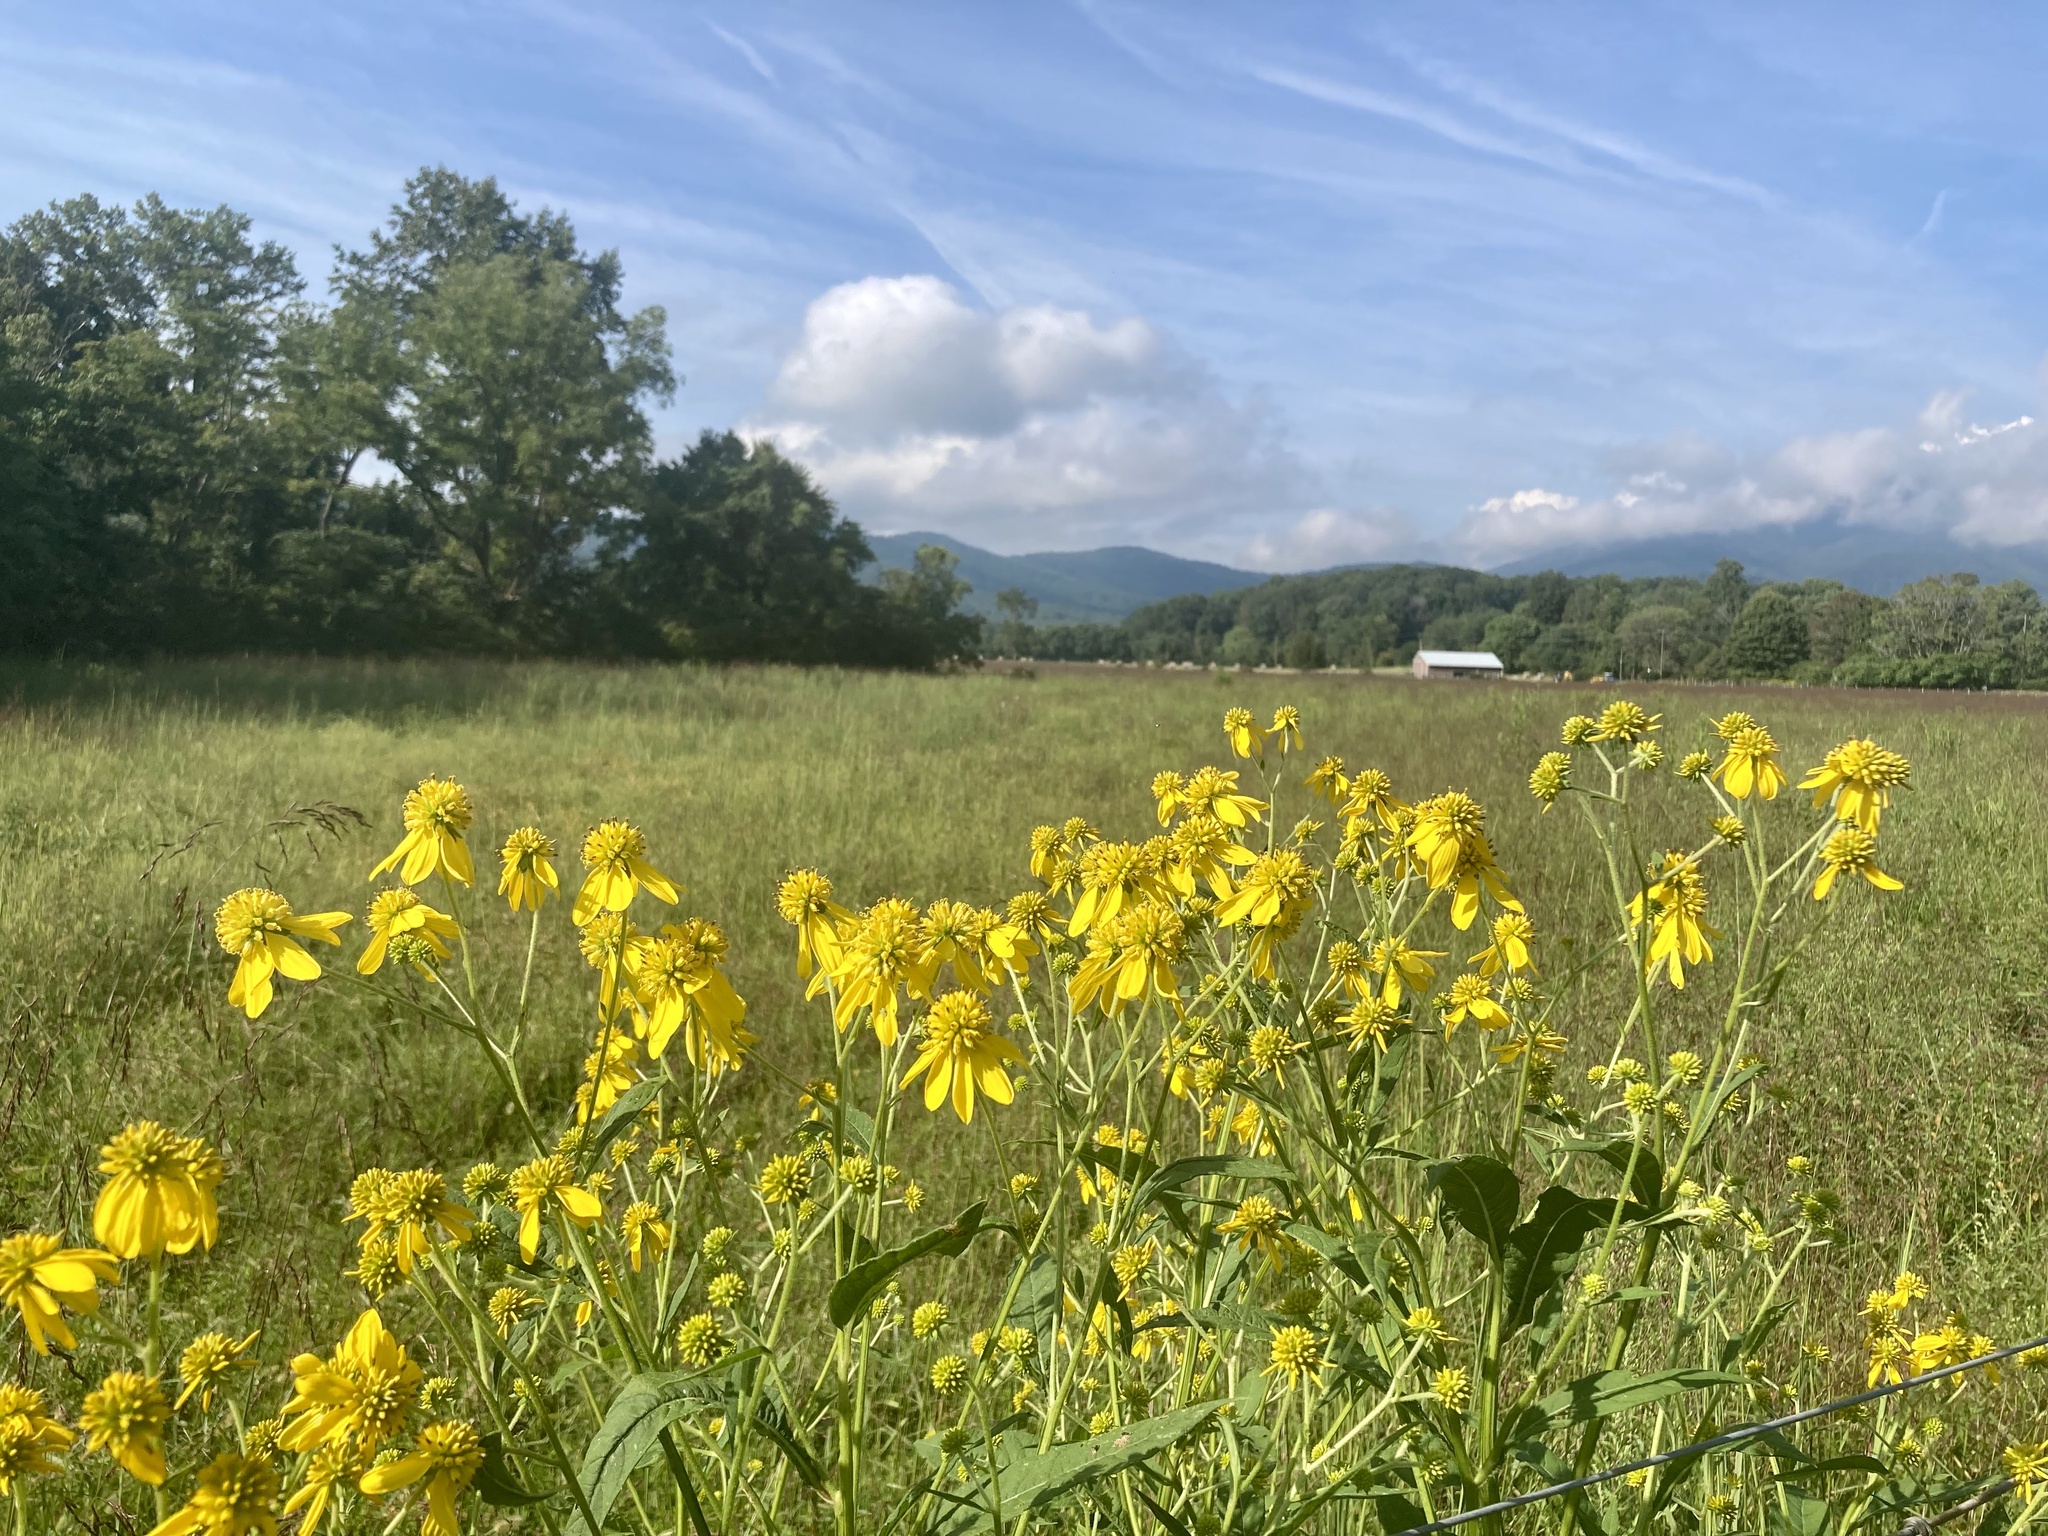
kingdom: Plantae
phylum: Tracheophyta
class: Magnoliopsida
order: Asterales
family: Asteraceae
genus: Verbesina
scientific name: Verbesina alternifolia
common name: Wingstem
